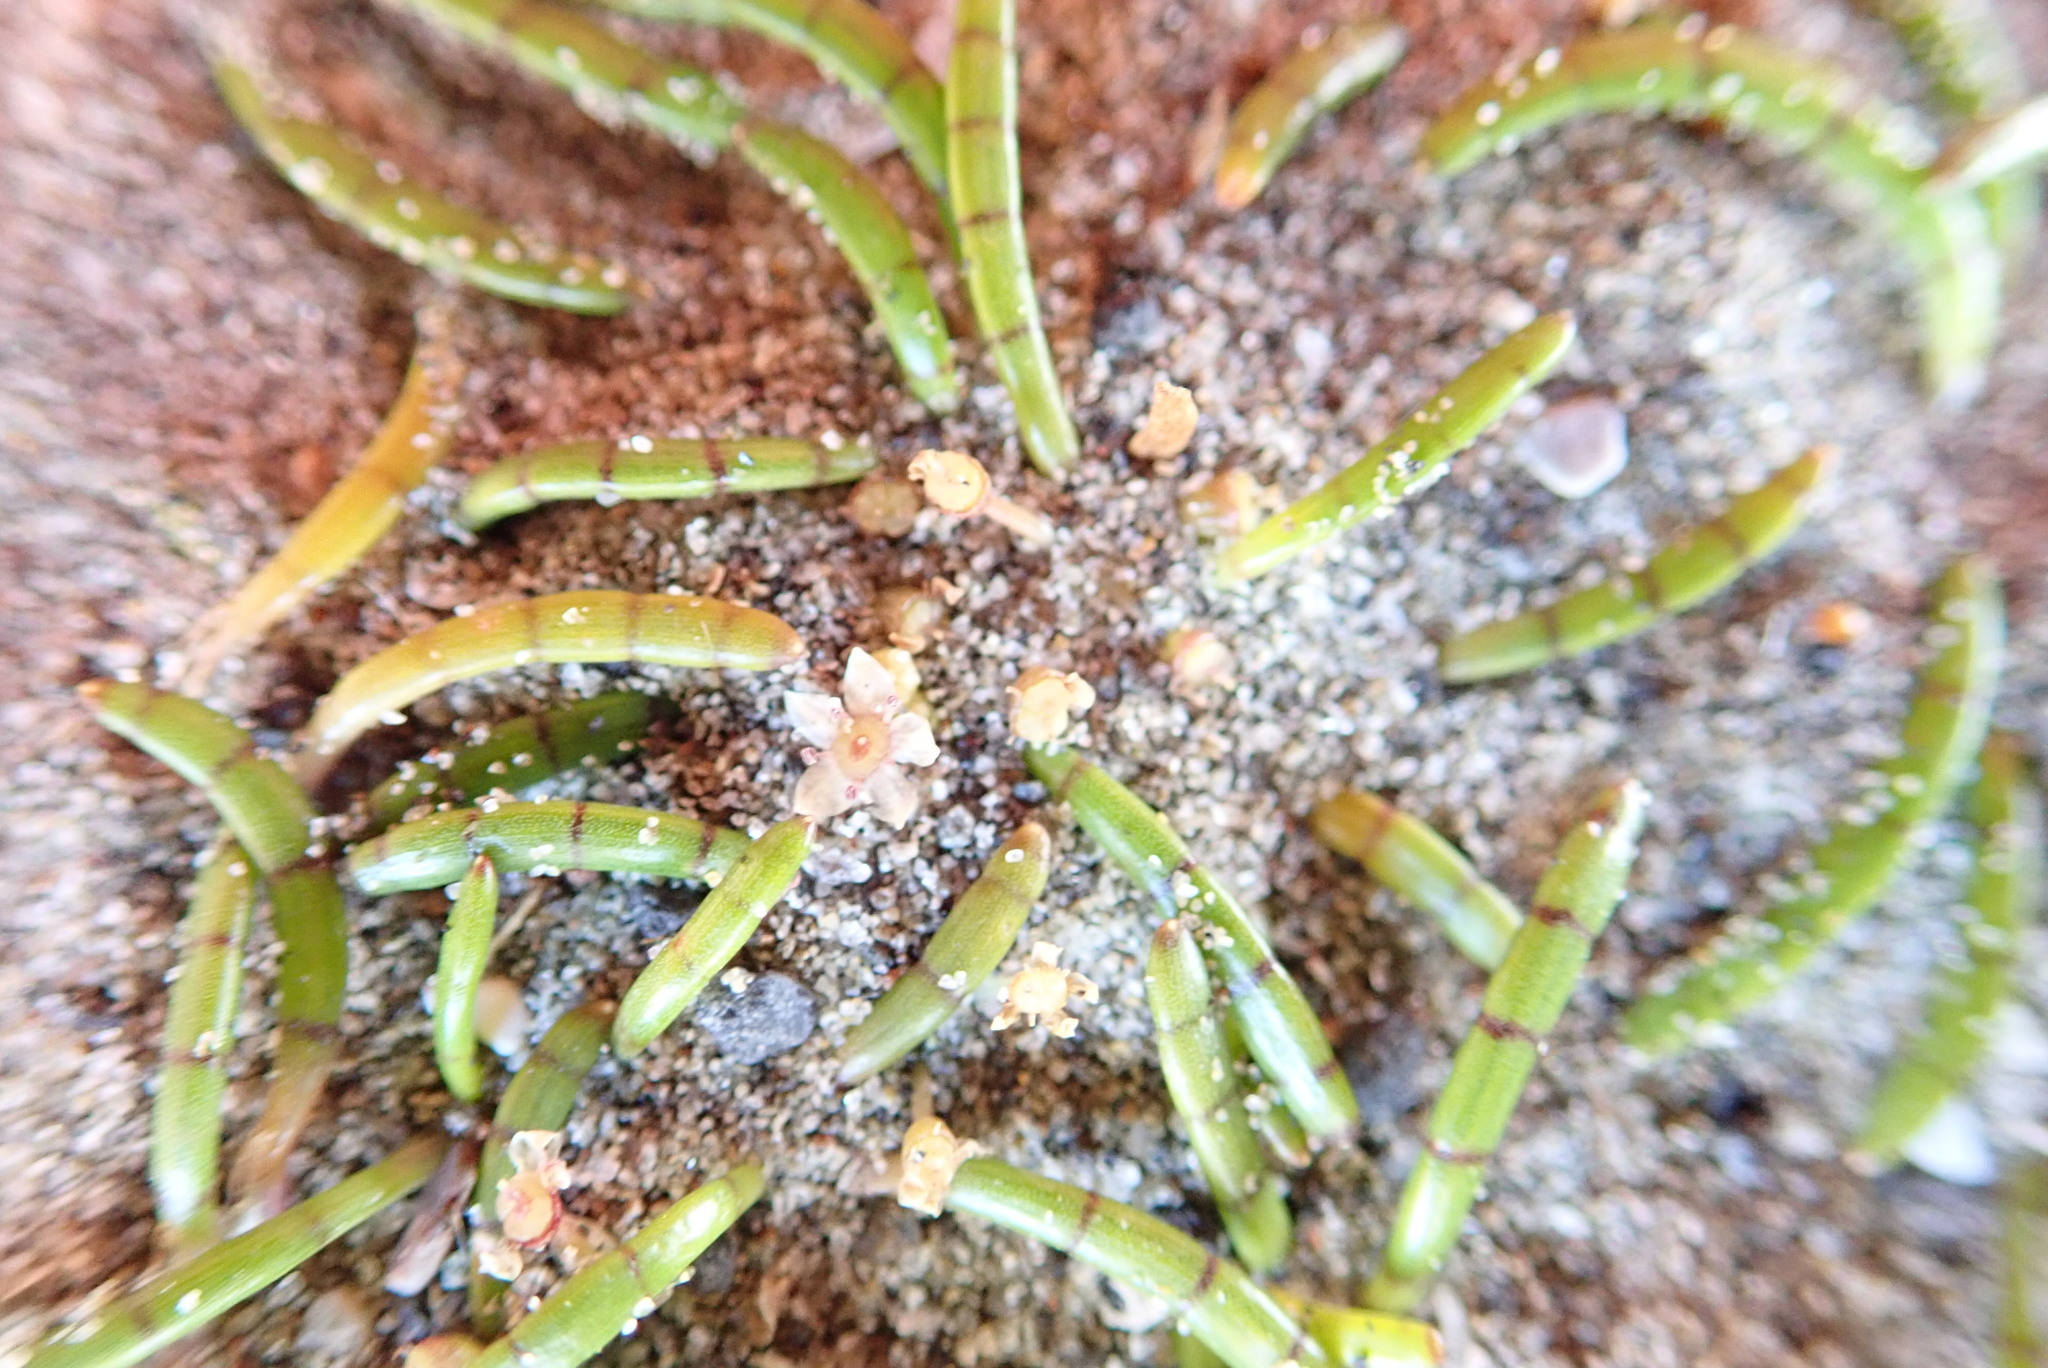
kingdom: Plantae
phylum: Tracheophyta
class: Magnoliopsida
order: Apiales
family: Apiaceae
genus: Lilaeopsis
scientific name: Lilaeopsis novae-zelandiae
